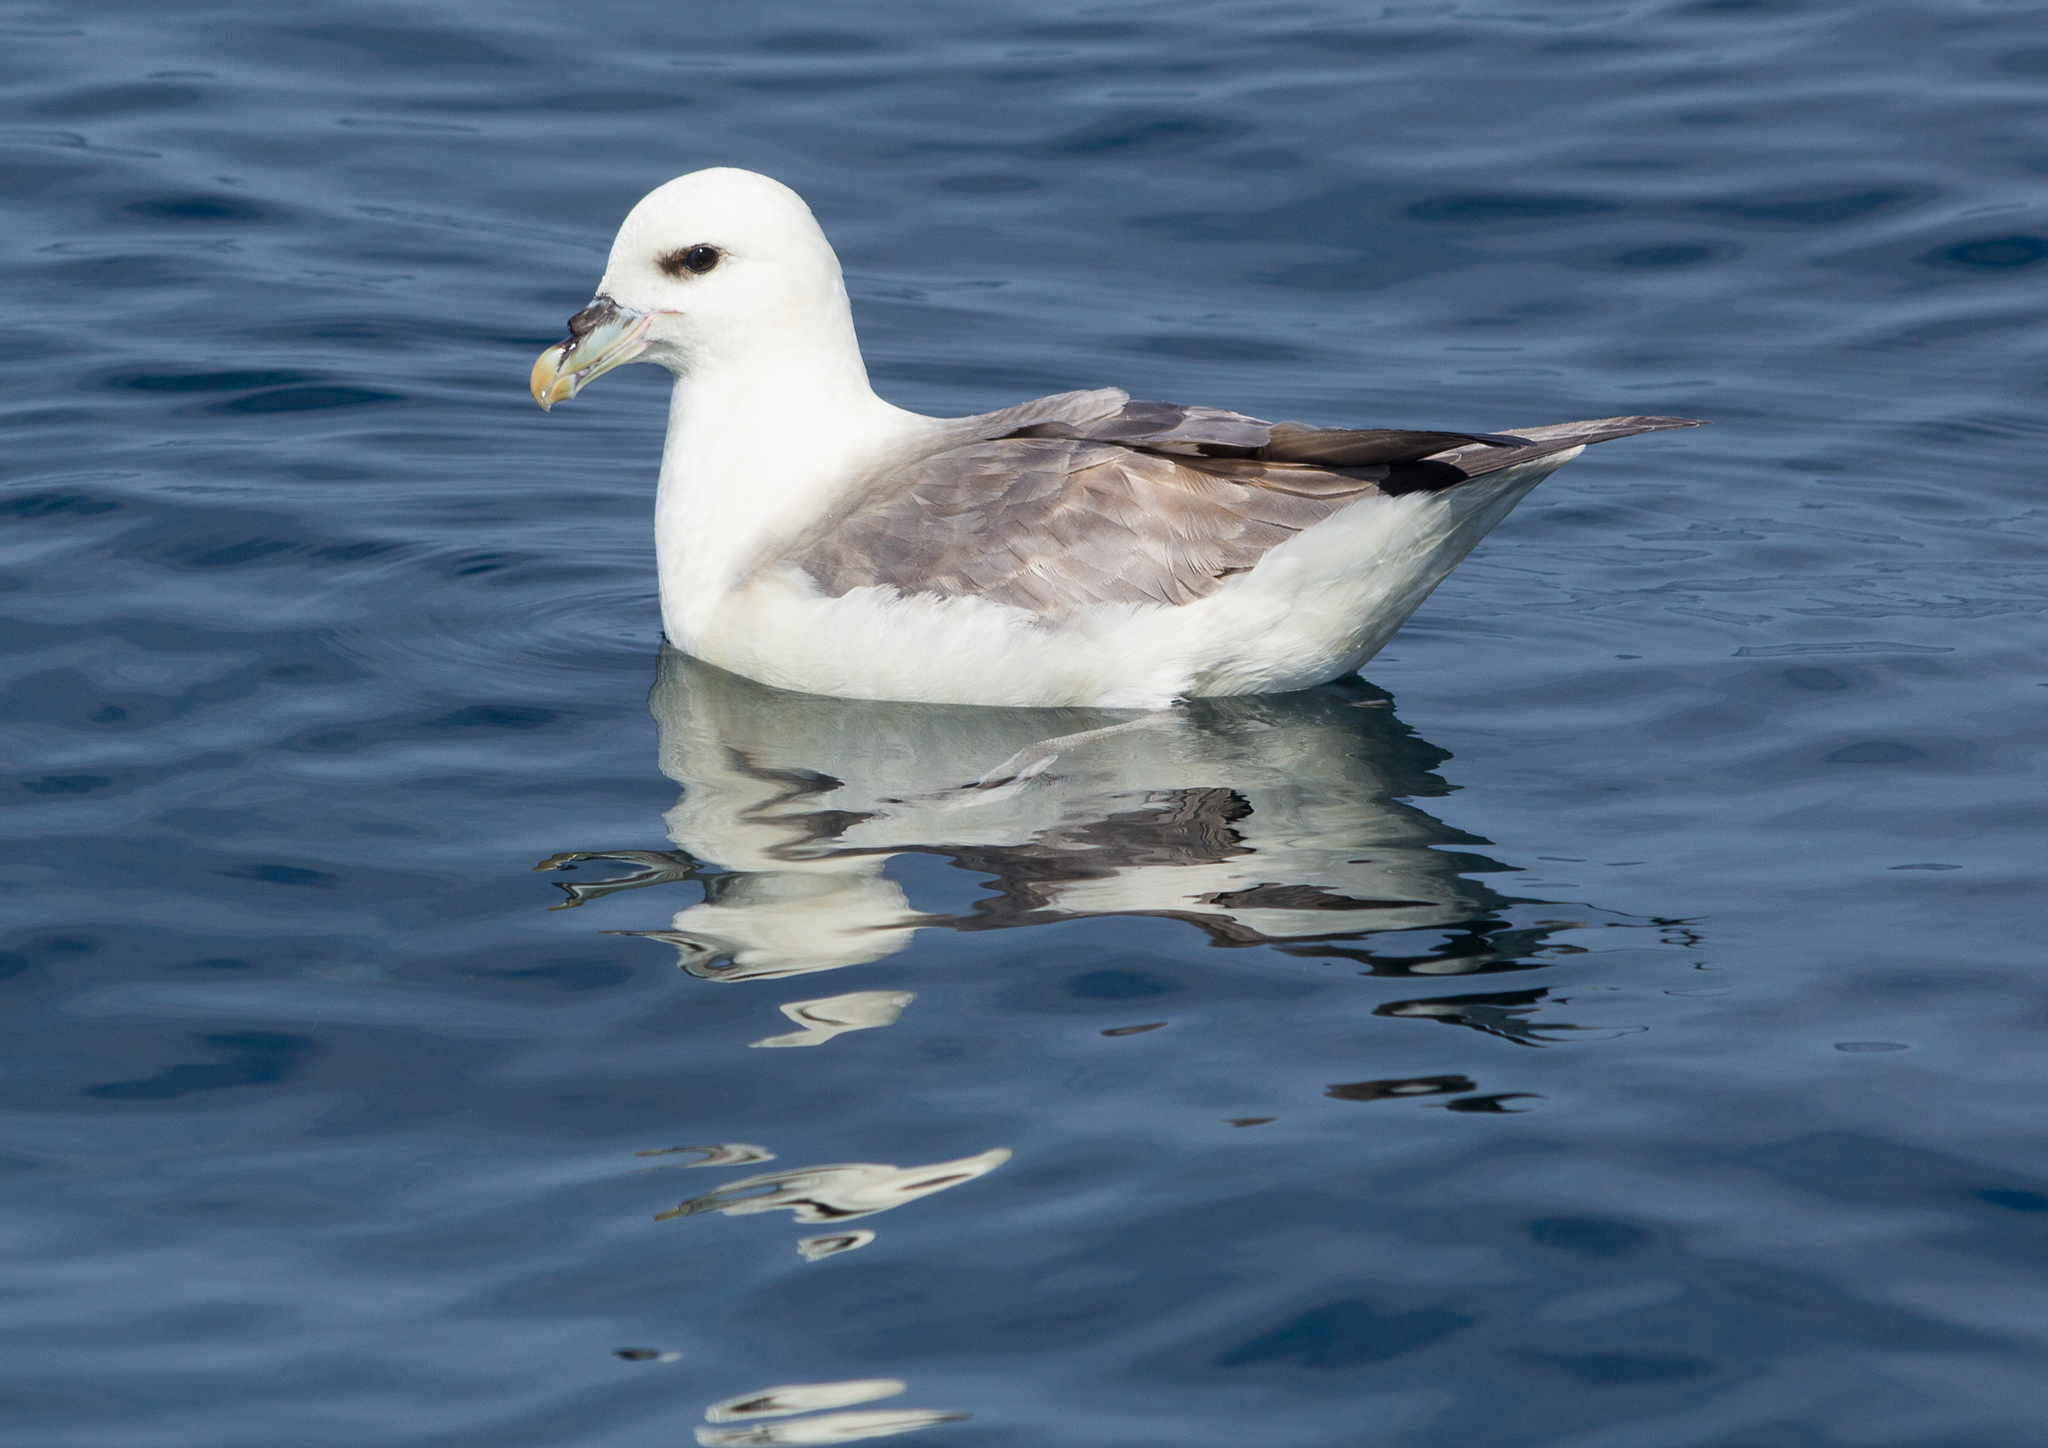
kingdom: Animalia
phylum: Chordata
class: Aves
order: Procellariiformes
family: Procellariidae
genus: Fulmarus
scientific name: Fulmarus glacialis
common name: Northern fulmar
